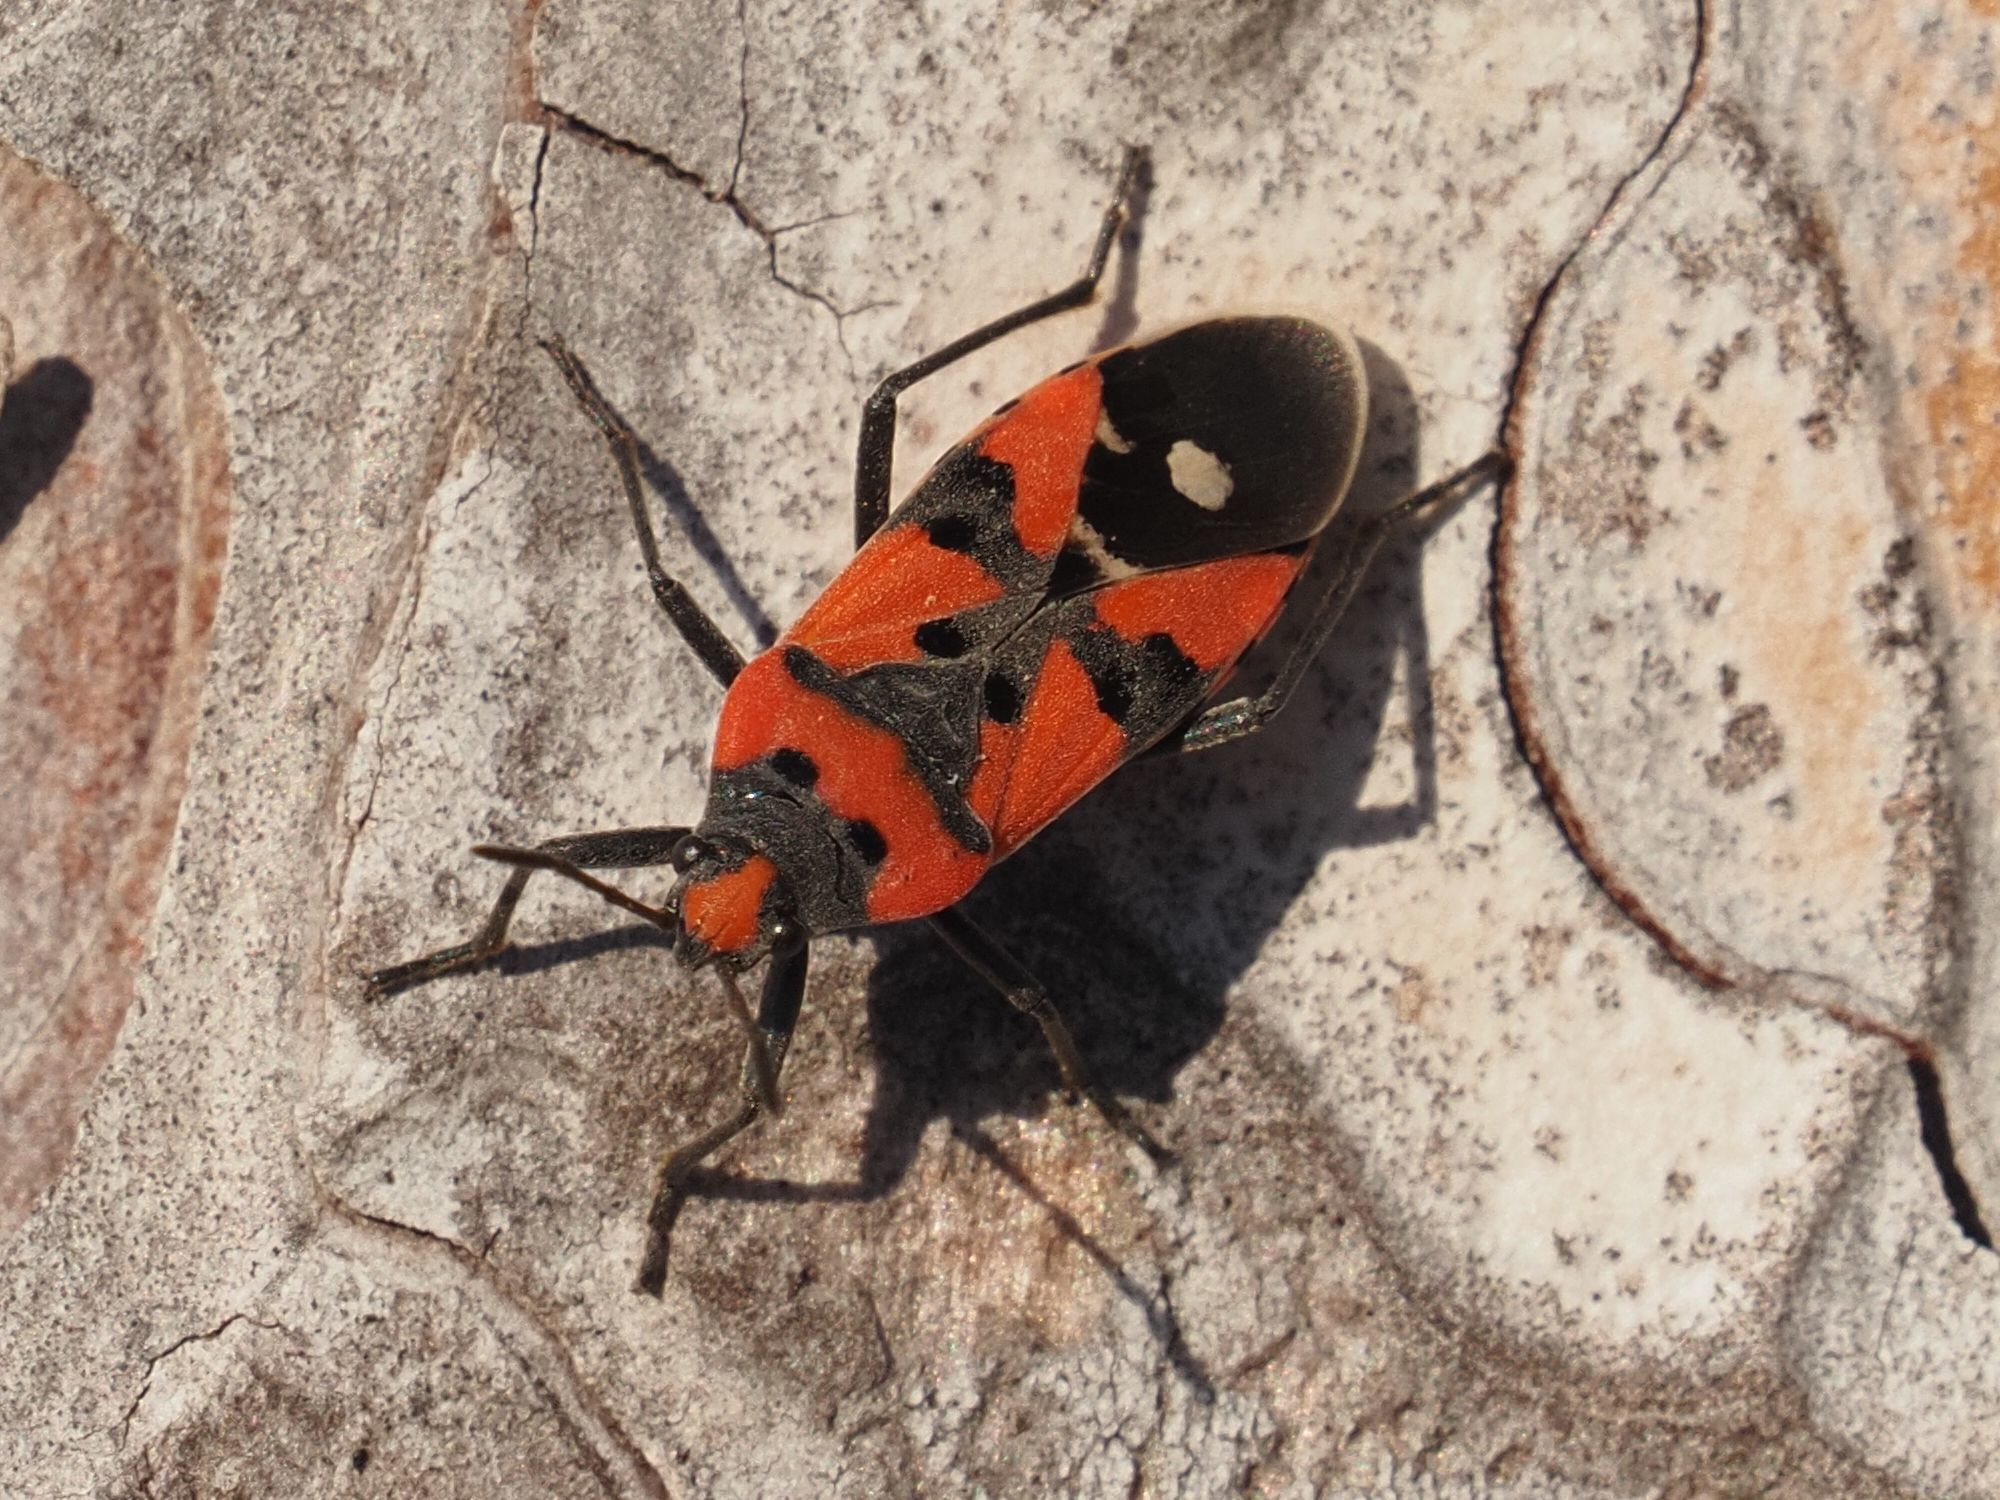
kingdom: Animalia
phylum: Arthropoda
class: Insecta
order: Hemiptera
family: Lygaeidae
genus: Lygaeus
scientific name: Lygaeus equestris
